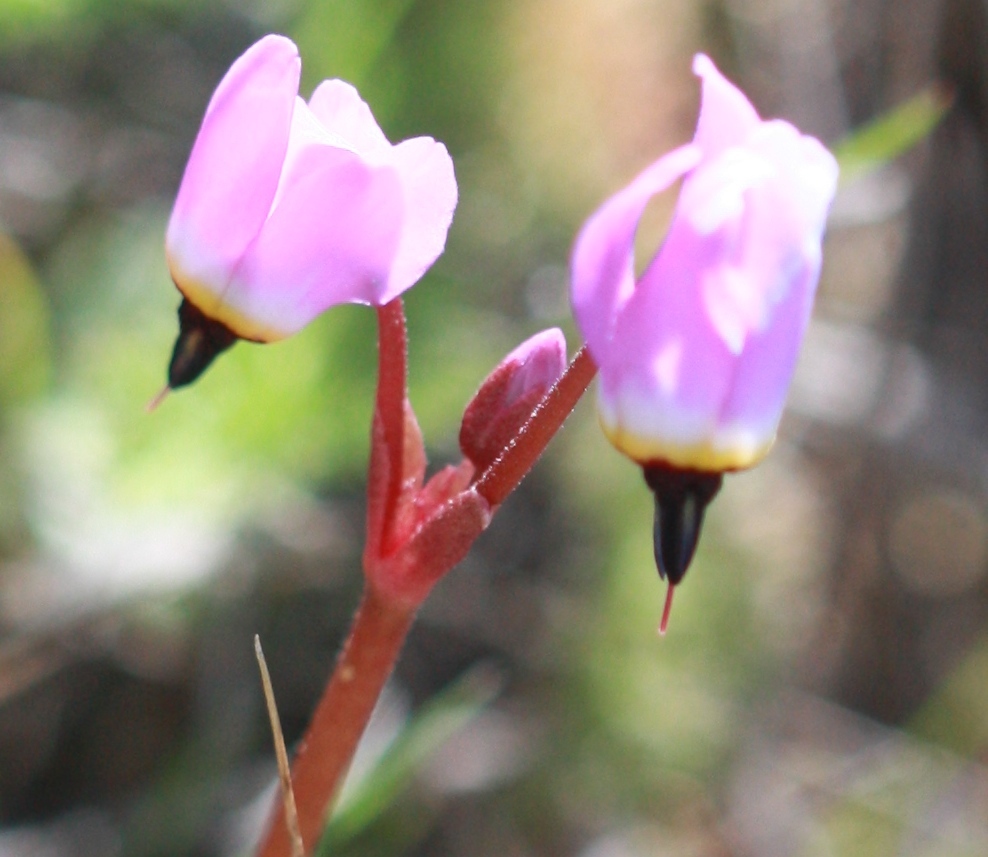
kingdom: Plantae
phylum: Tracheophyta
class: Magnoliopsida
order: Ericales
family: Primulaceae
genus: Dodecatheon
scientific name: Dodecatheon hendersonii
